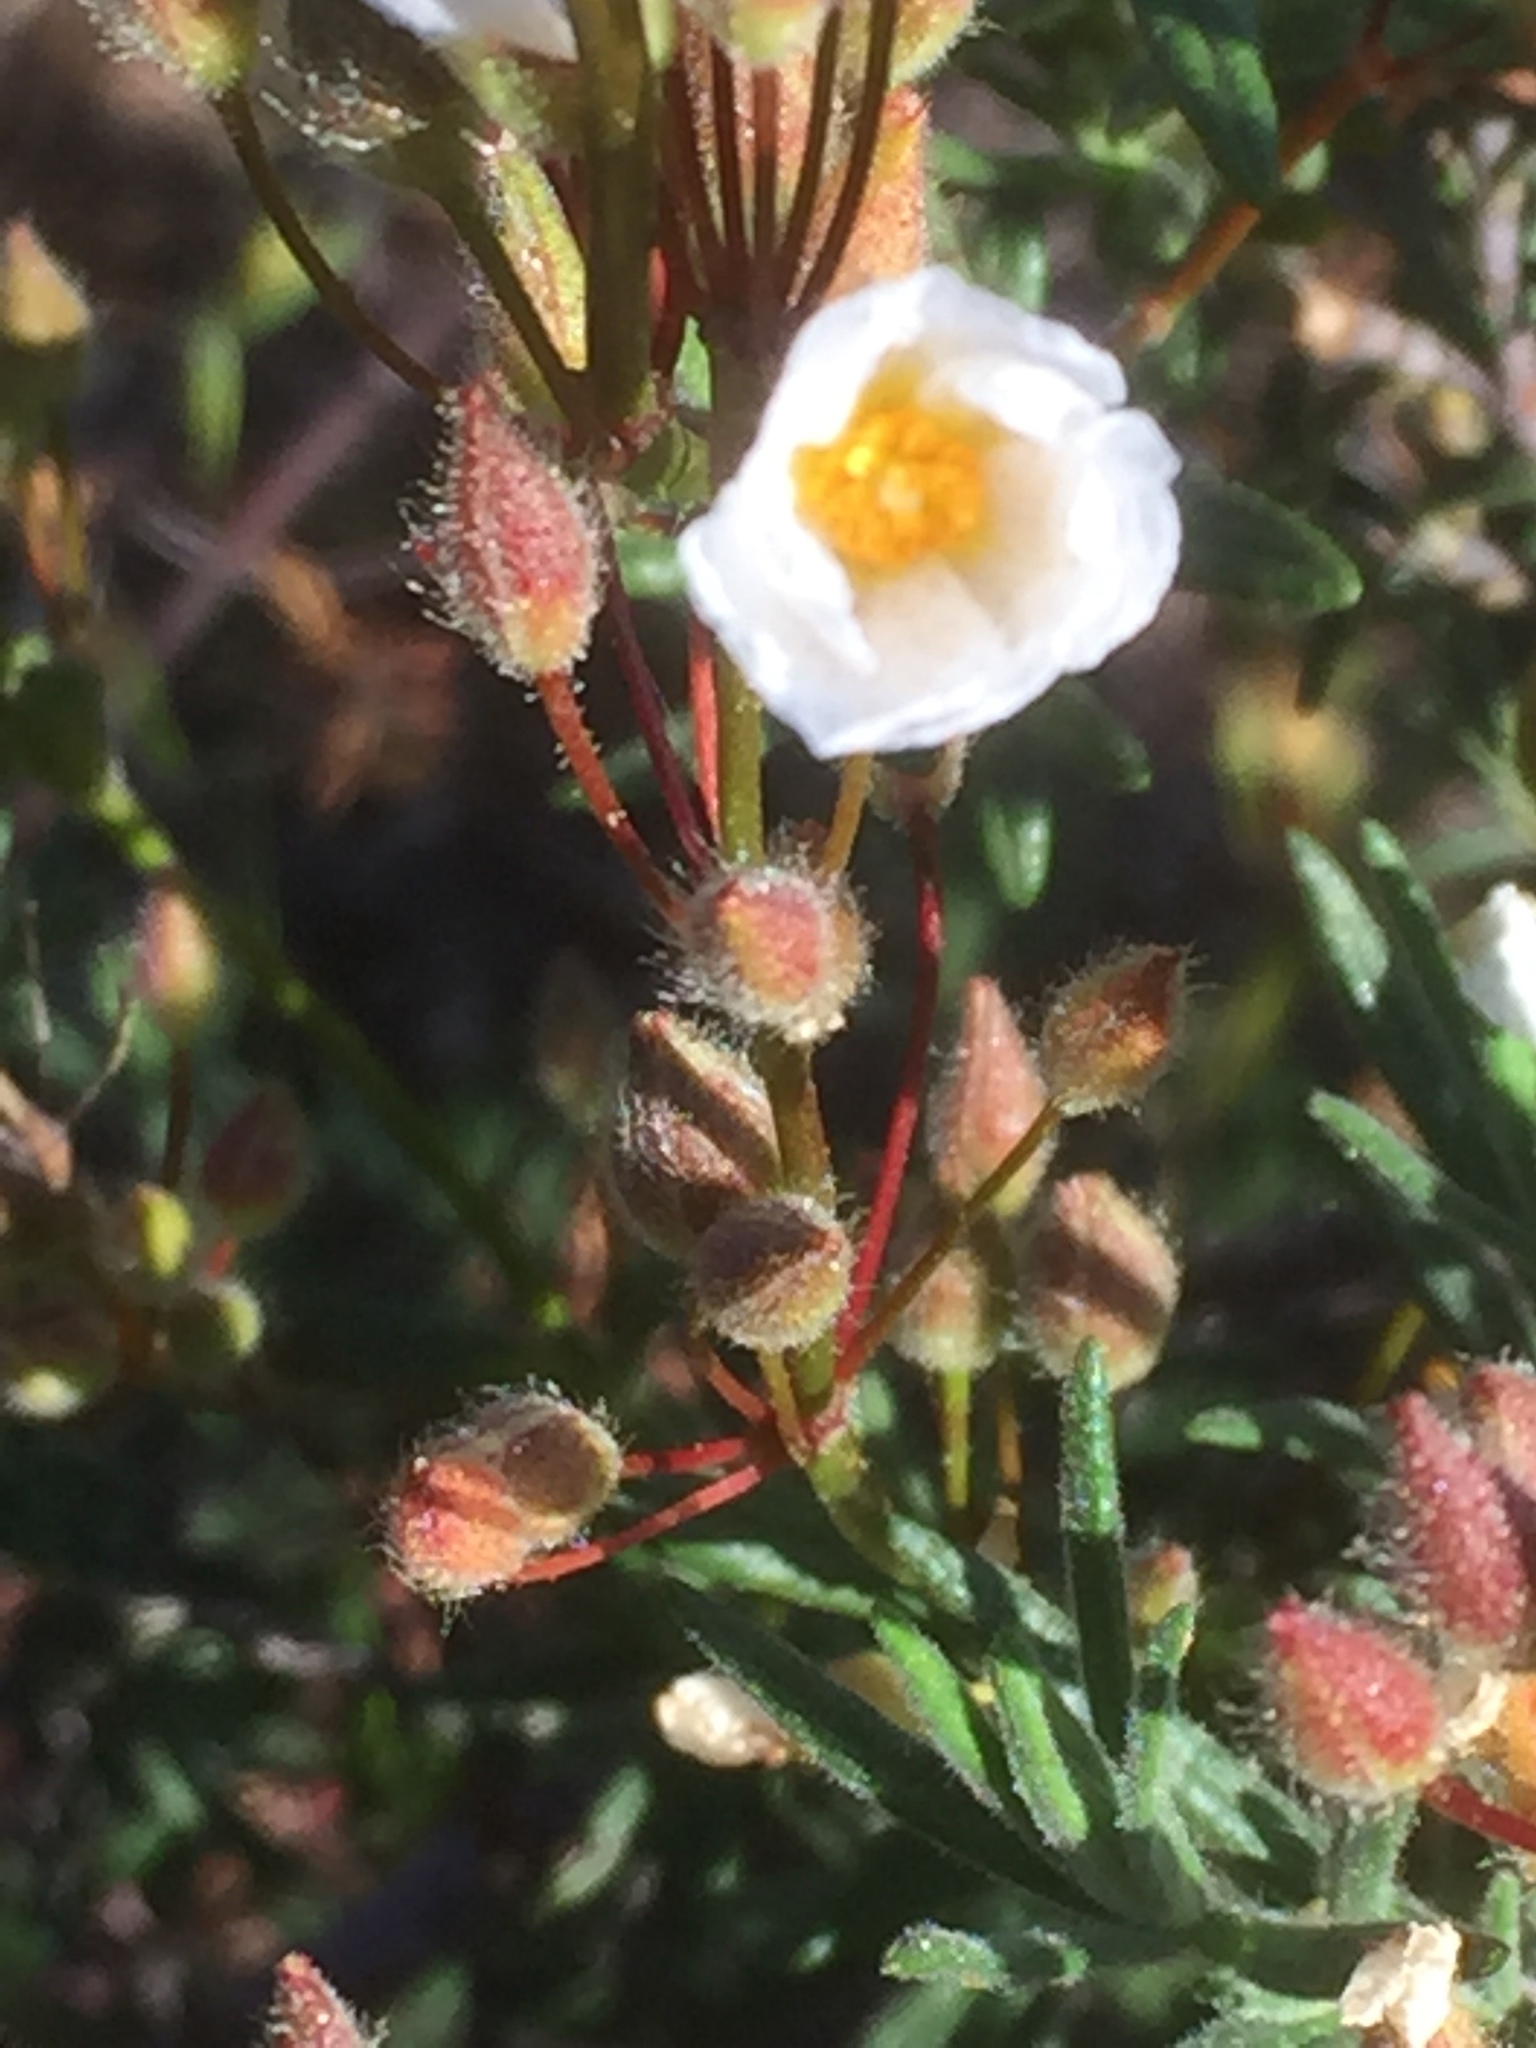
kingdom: Plantae
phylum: Tracheophyta
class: Magnoliopsida
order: Malvales
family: Cistaceae
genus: Halimium
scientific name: Halimium umbellatum
